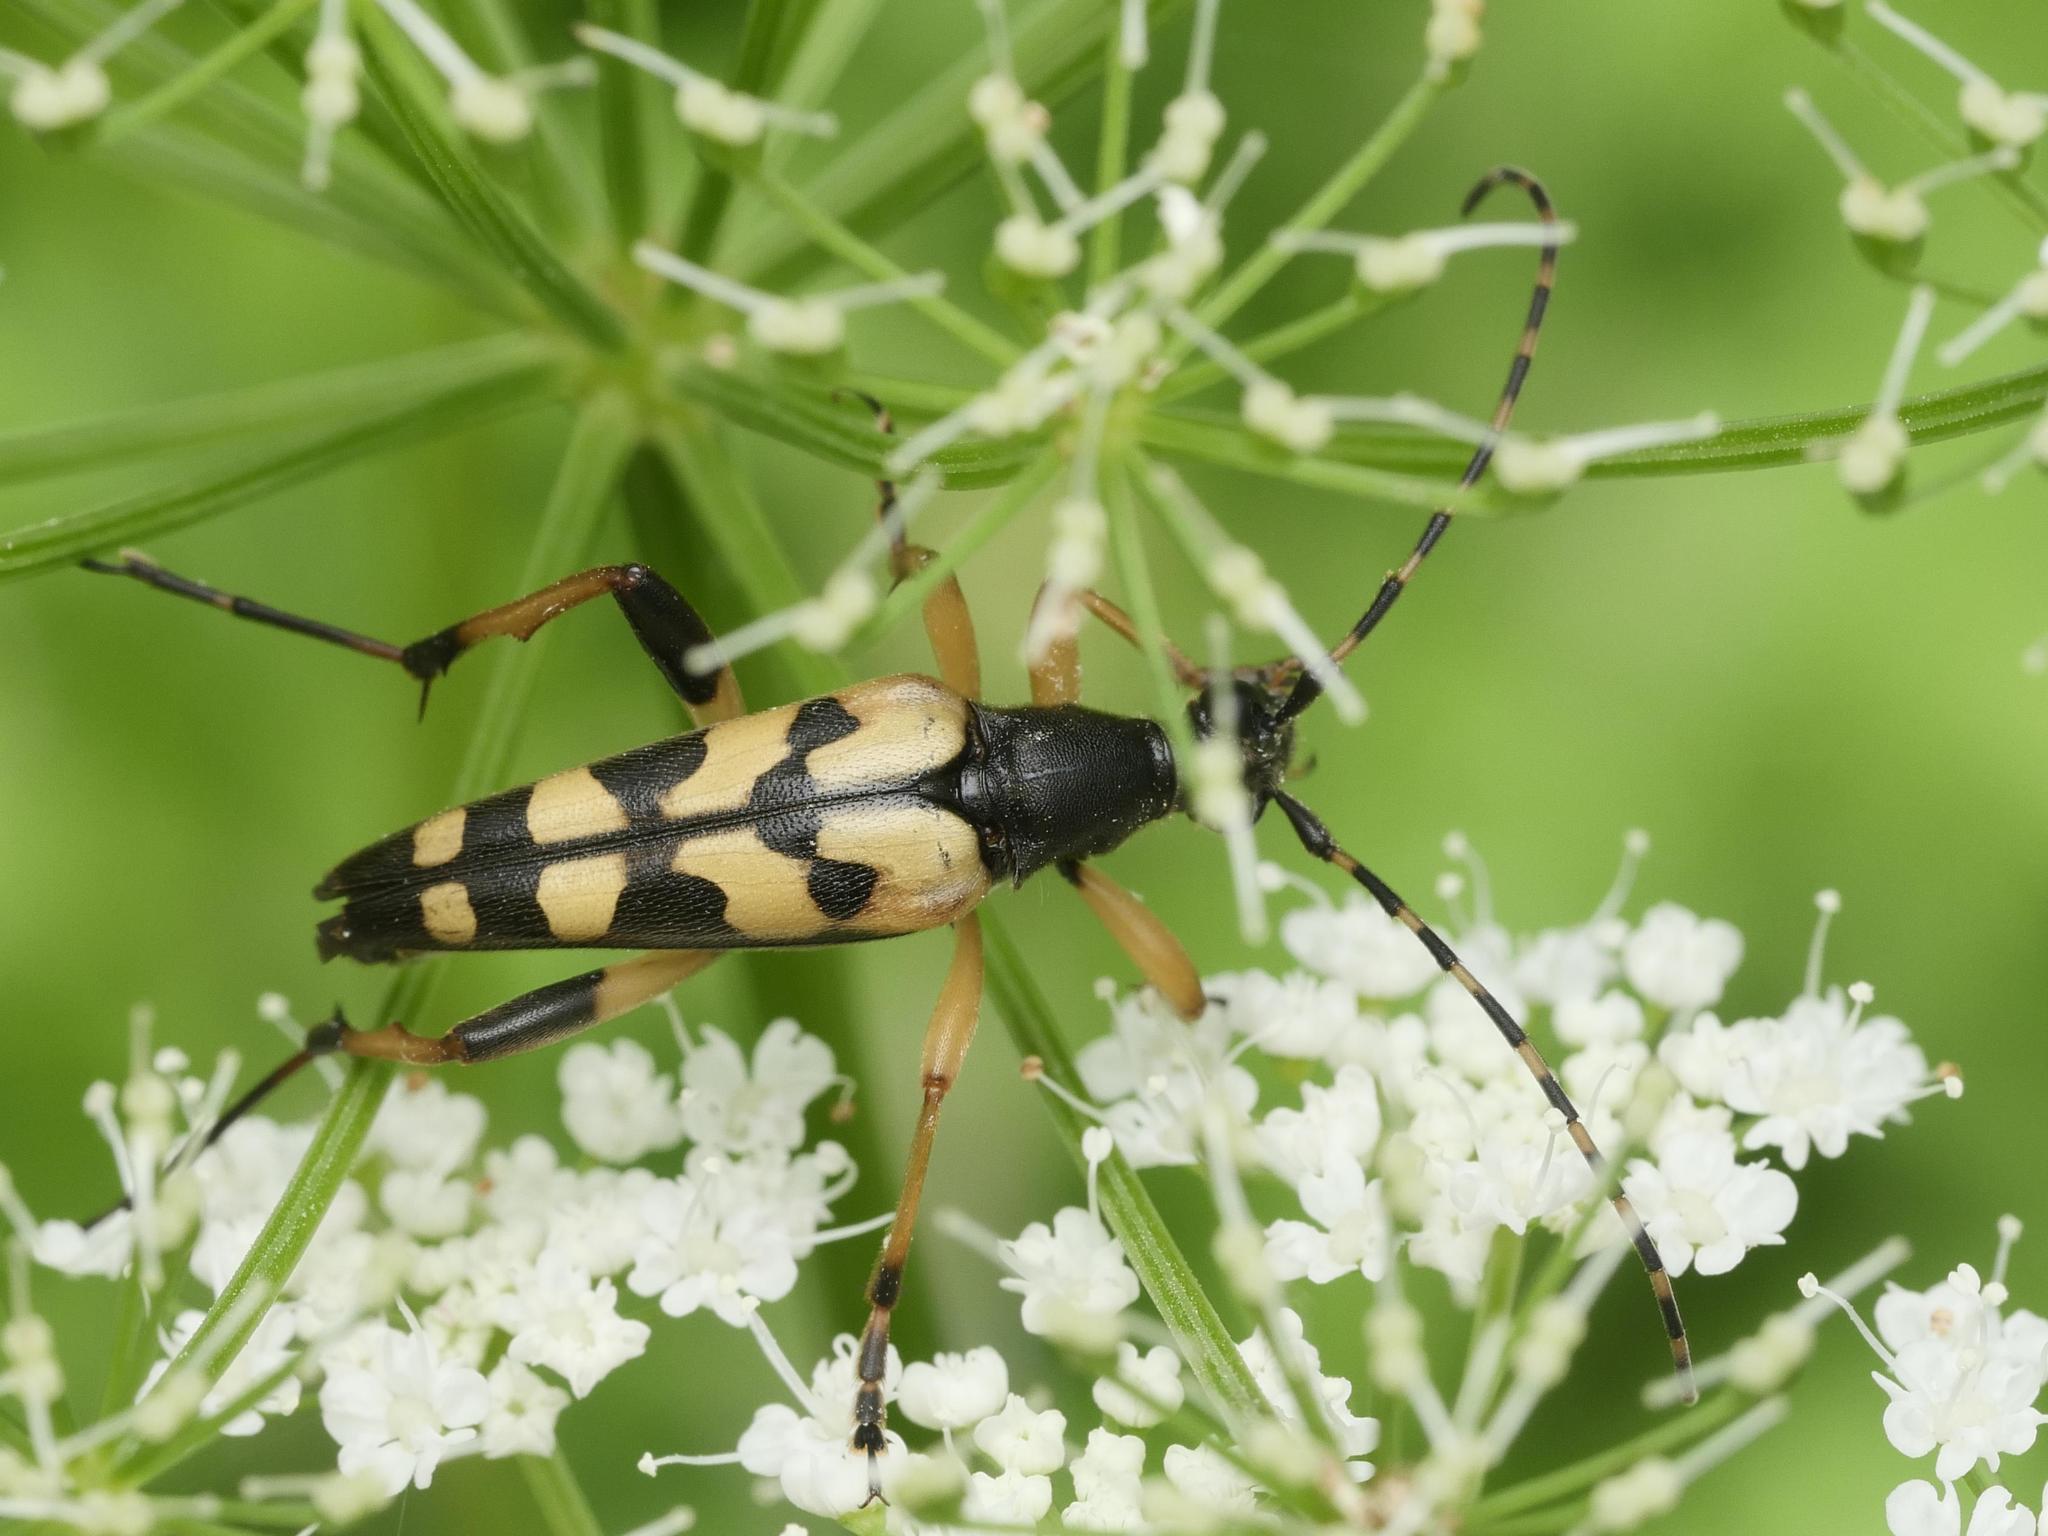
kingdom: Animalia
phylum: Arthropoda
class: Insecta
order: Coleoptera
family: Cerambycidae
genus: Rutpela
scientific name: Rutpela maculata
